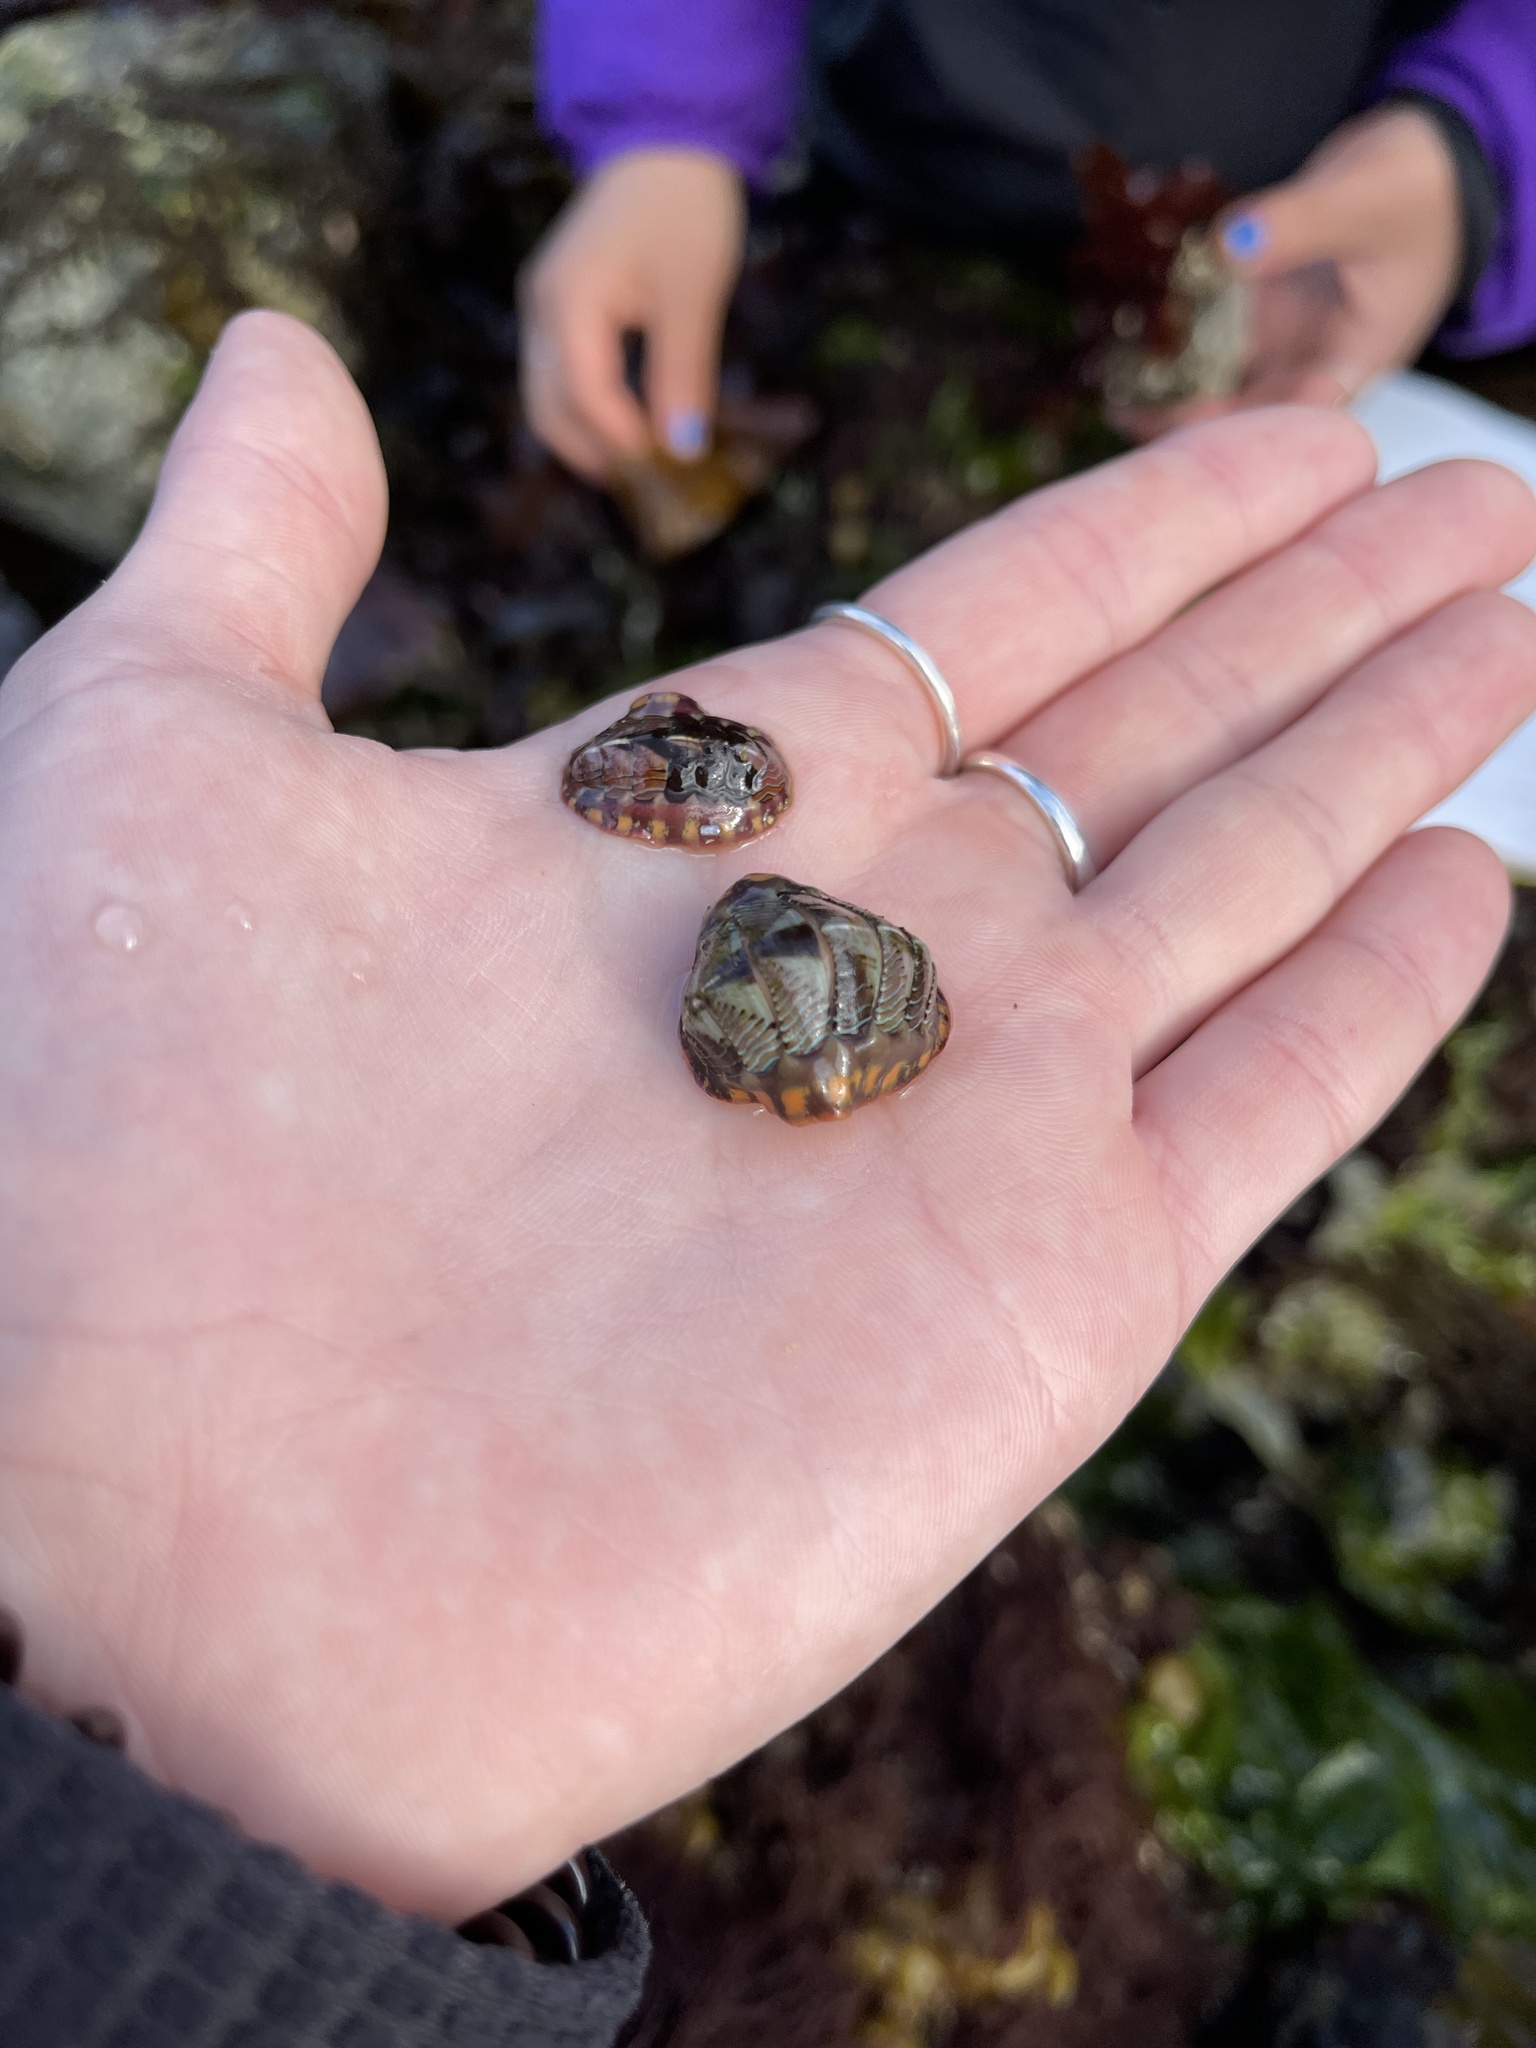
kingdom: Animalia
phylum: Mollusca
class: Polyplacophora
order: Chitonida
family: Tonicellidae
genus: Tonicella
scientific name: Tonicella lineata
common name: Lined chiton
